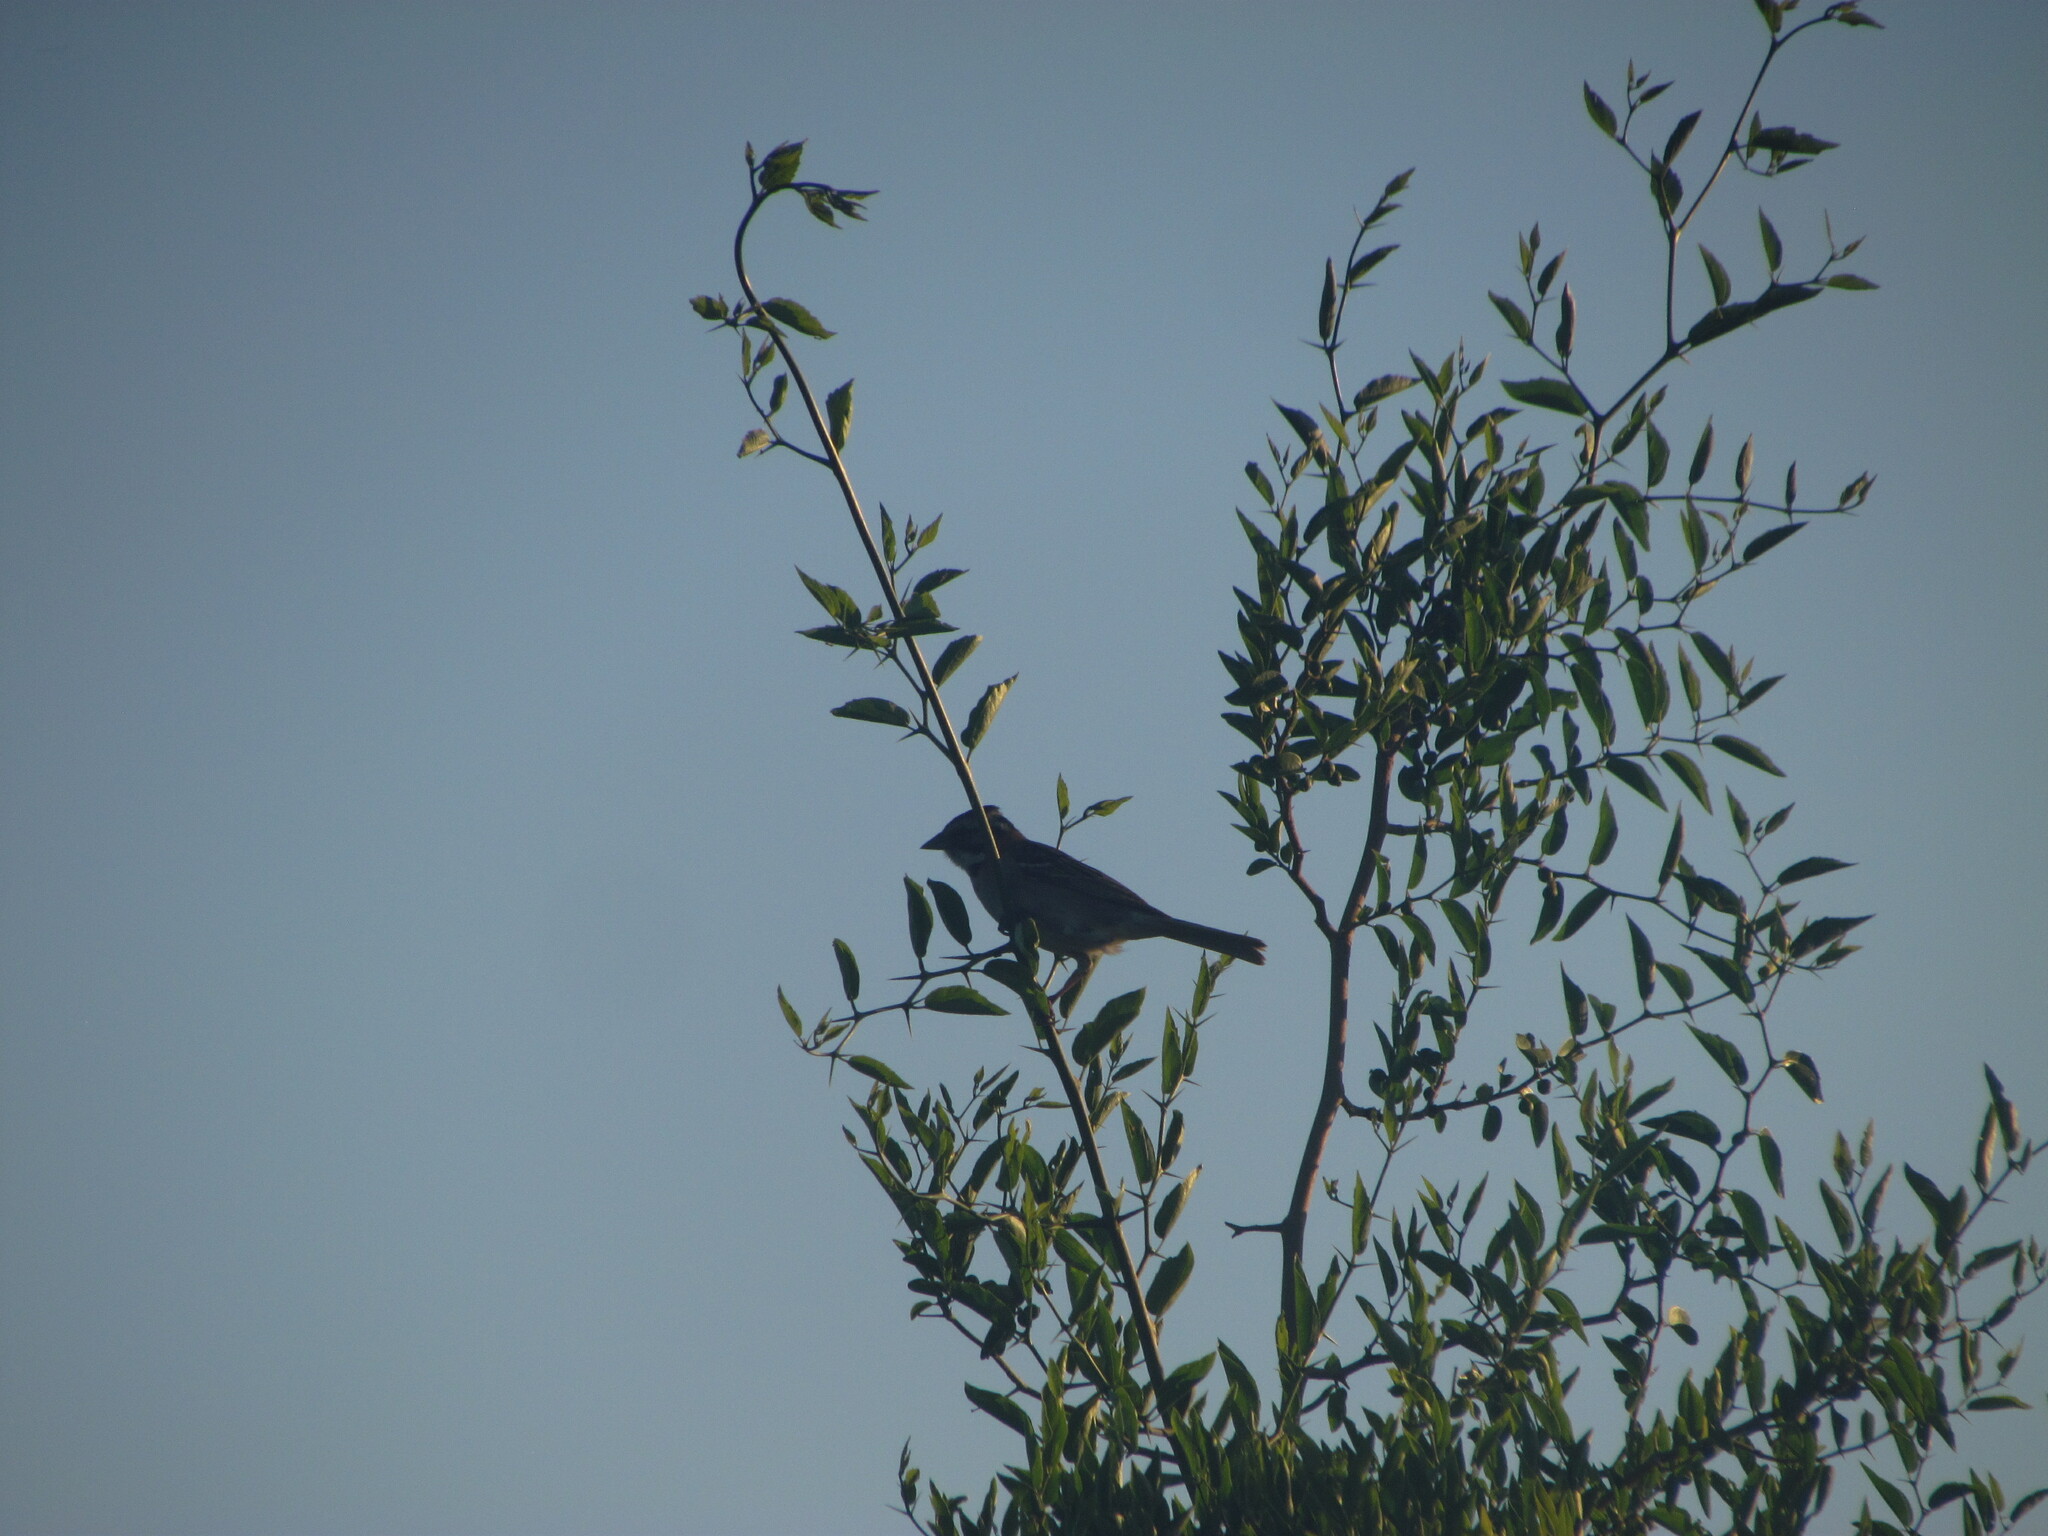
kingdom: Animalia
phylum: Chordata
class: Aves
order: Passeriformes
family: Passerellidae
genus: Zonotrichia
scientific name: Zonotrichia capensis
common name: Rufous-collared sparrow
